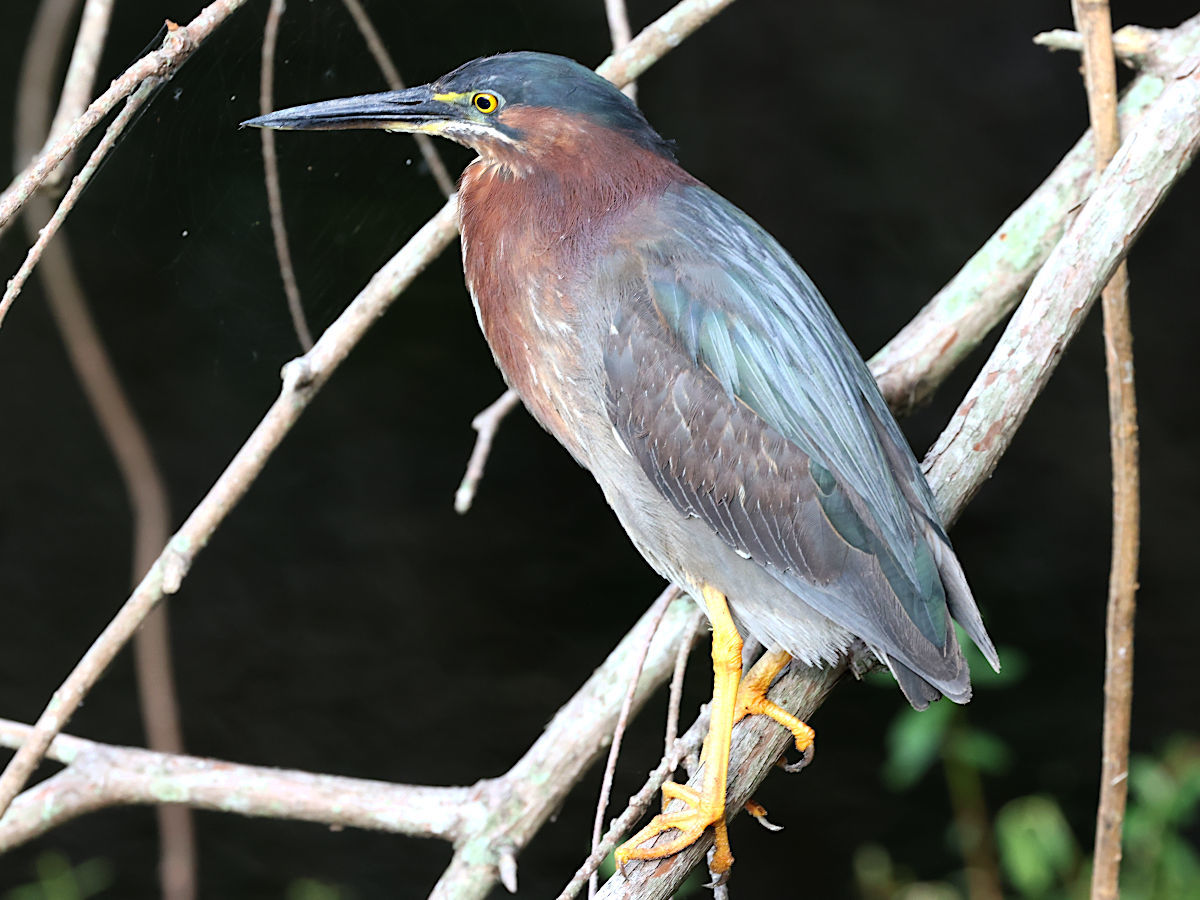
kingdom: Animalia
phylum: Chordata
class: Aves
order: Pelecaniformes
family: Ardeidae
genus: Butorides
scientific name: Butorides virescens
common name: Green heron
